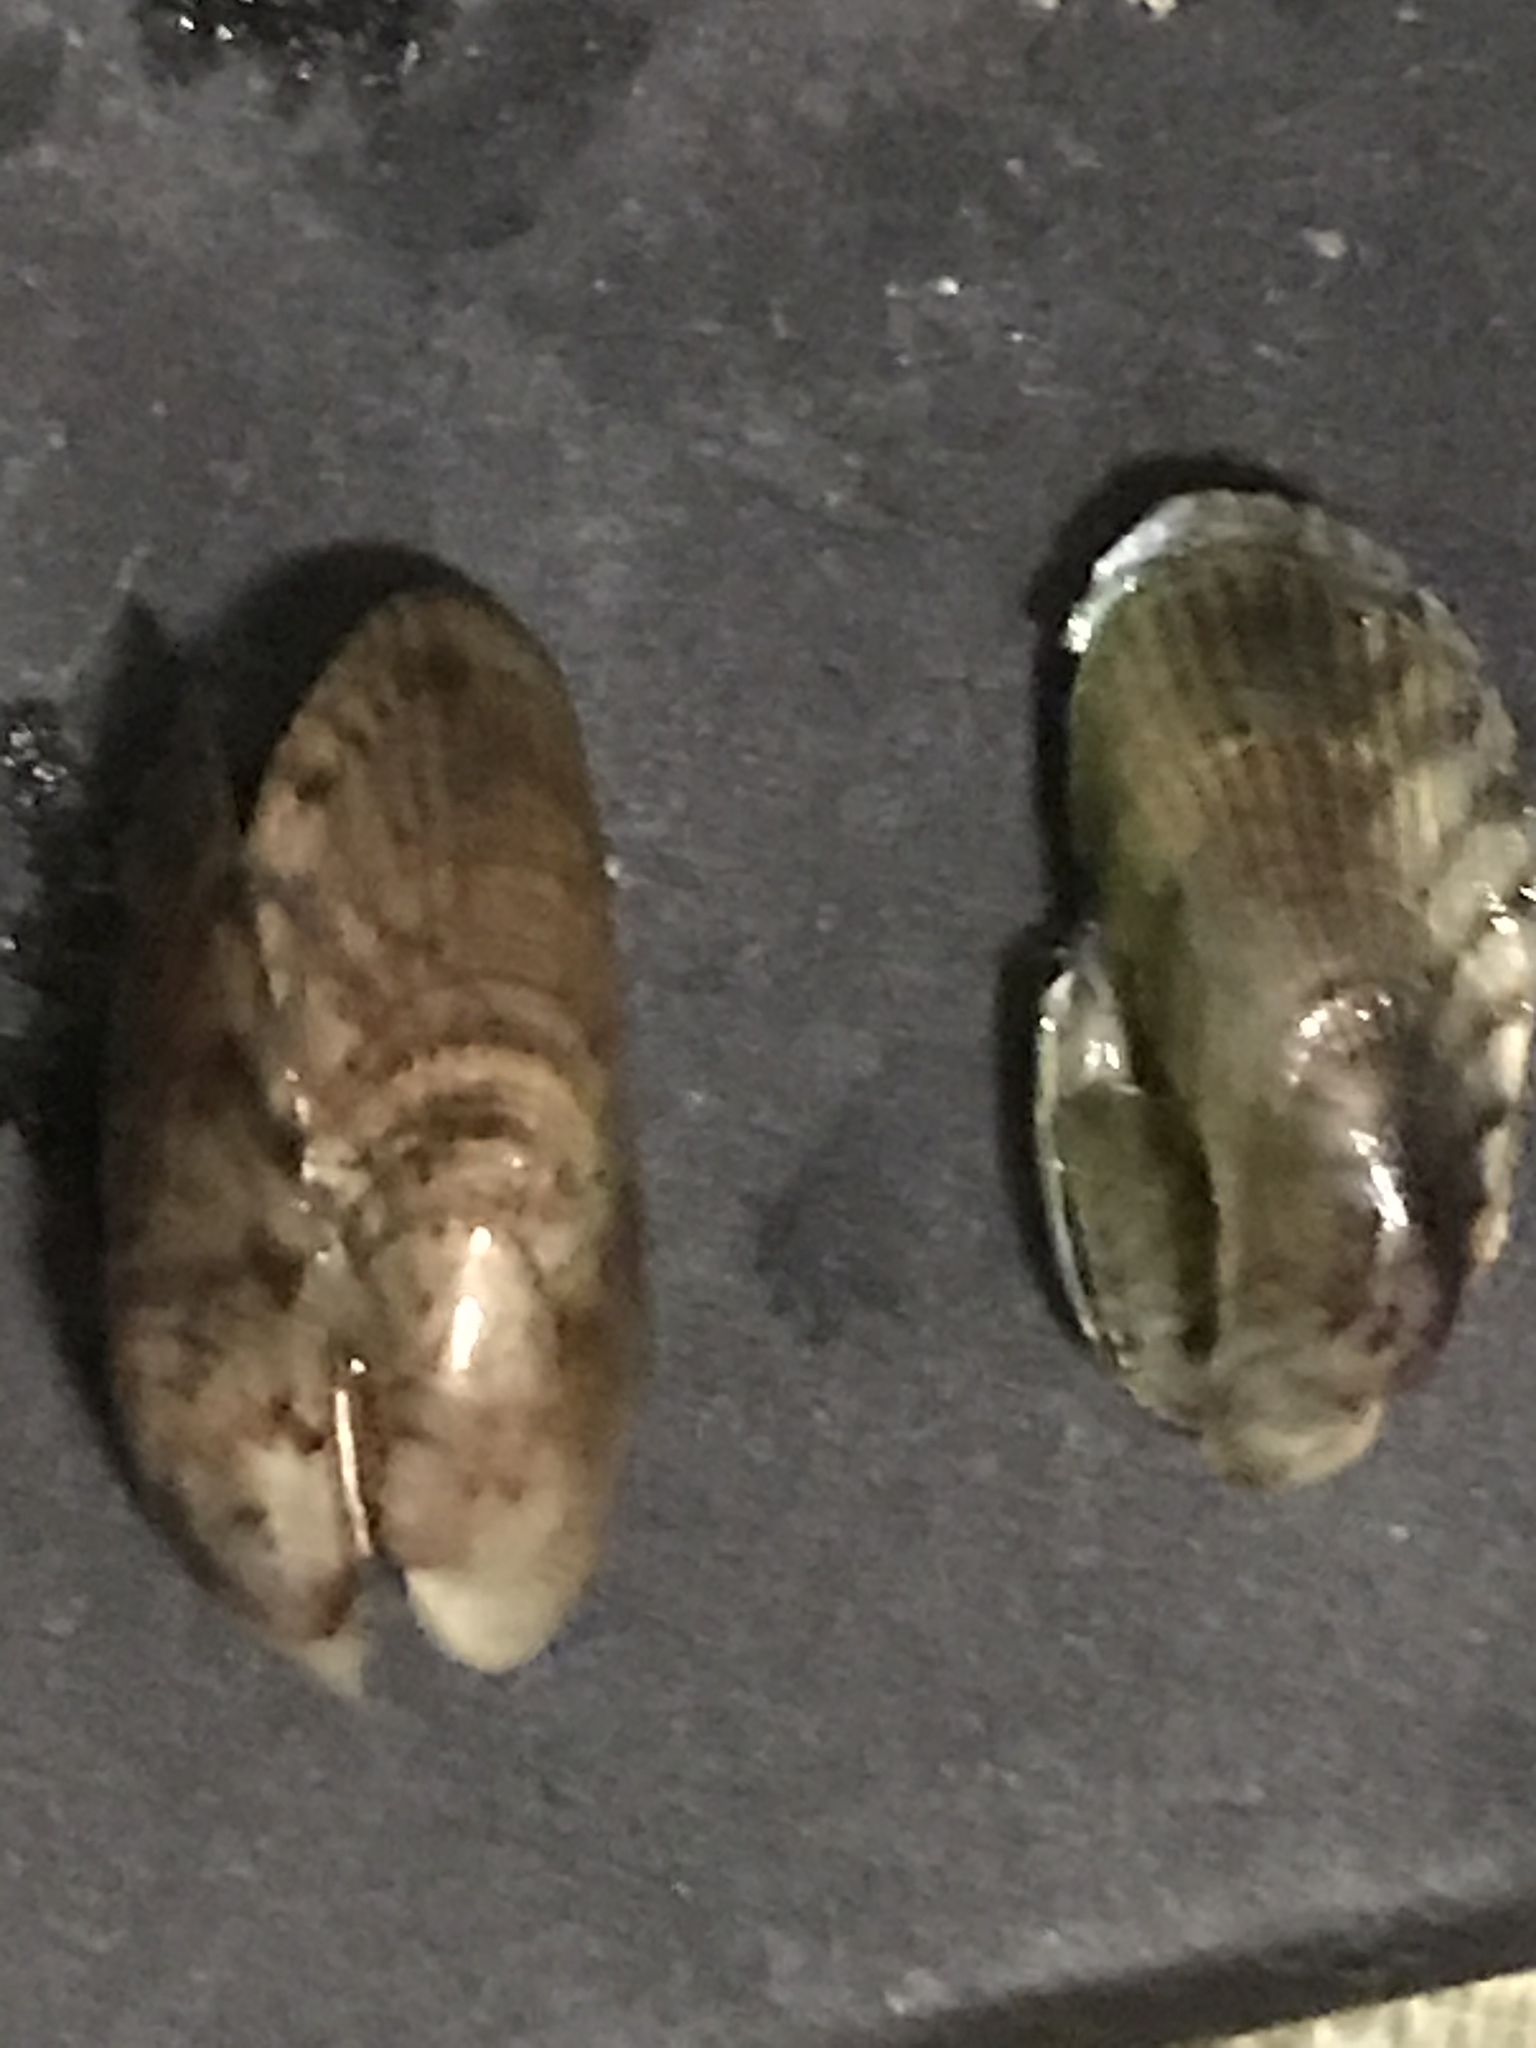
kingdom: Animalia
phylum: Mollusca
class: Bivalvia
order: Mytilida
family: Mytilidae
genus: Arcuatula
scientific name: Arcuatula senhousia
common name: Asian mussel
